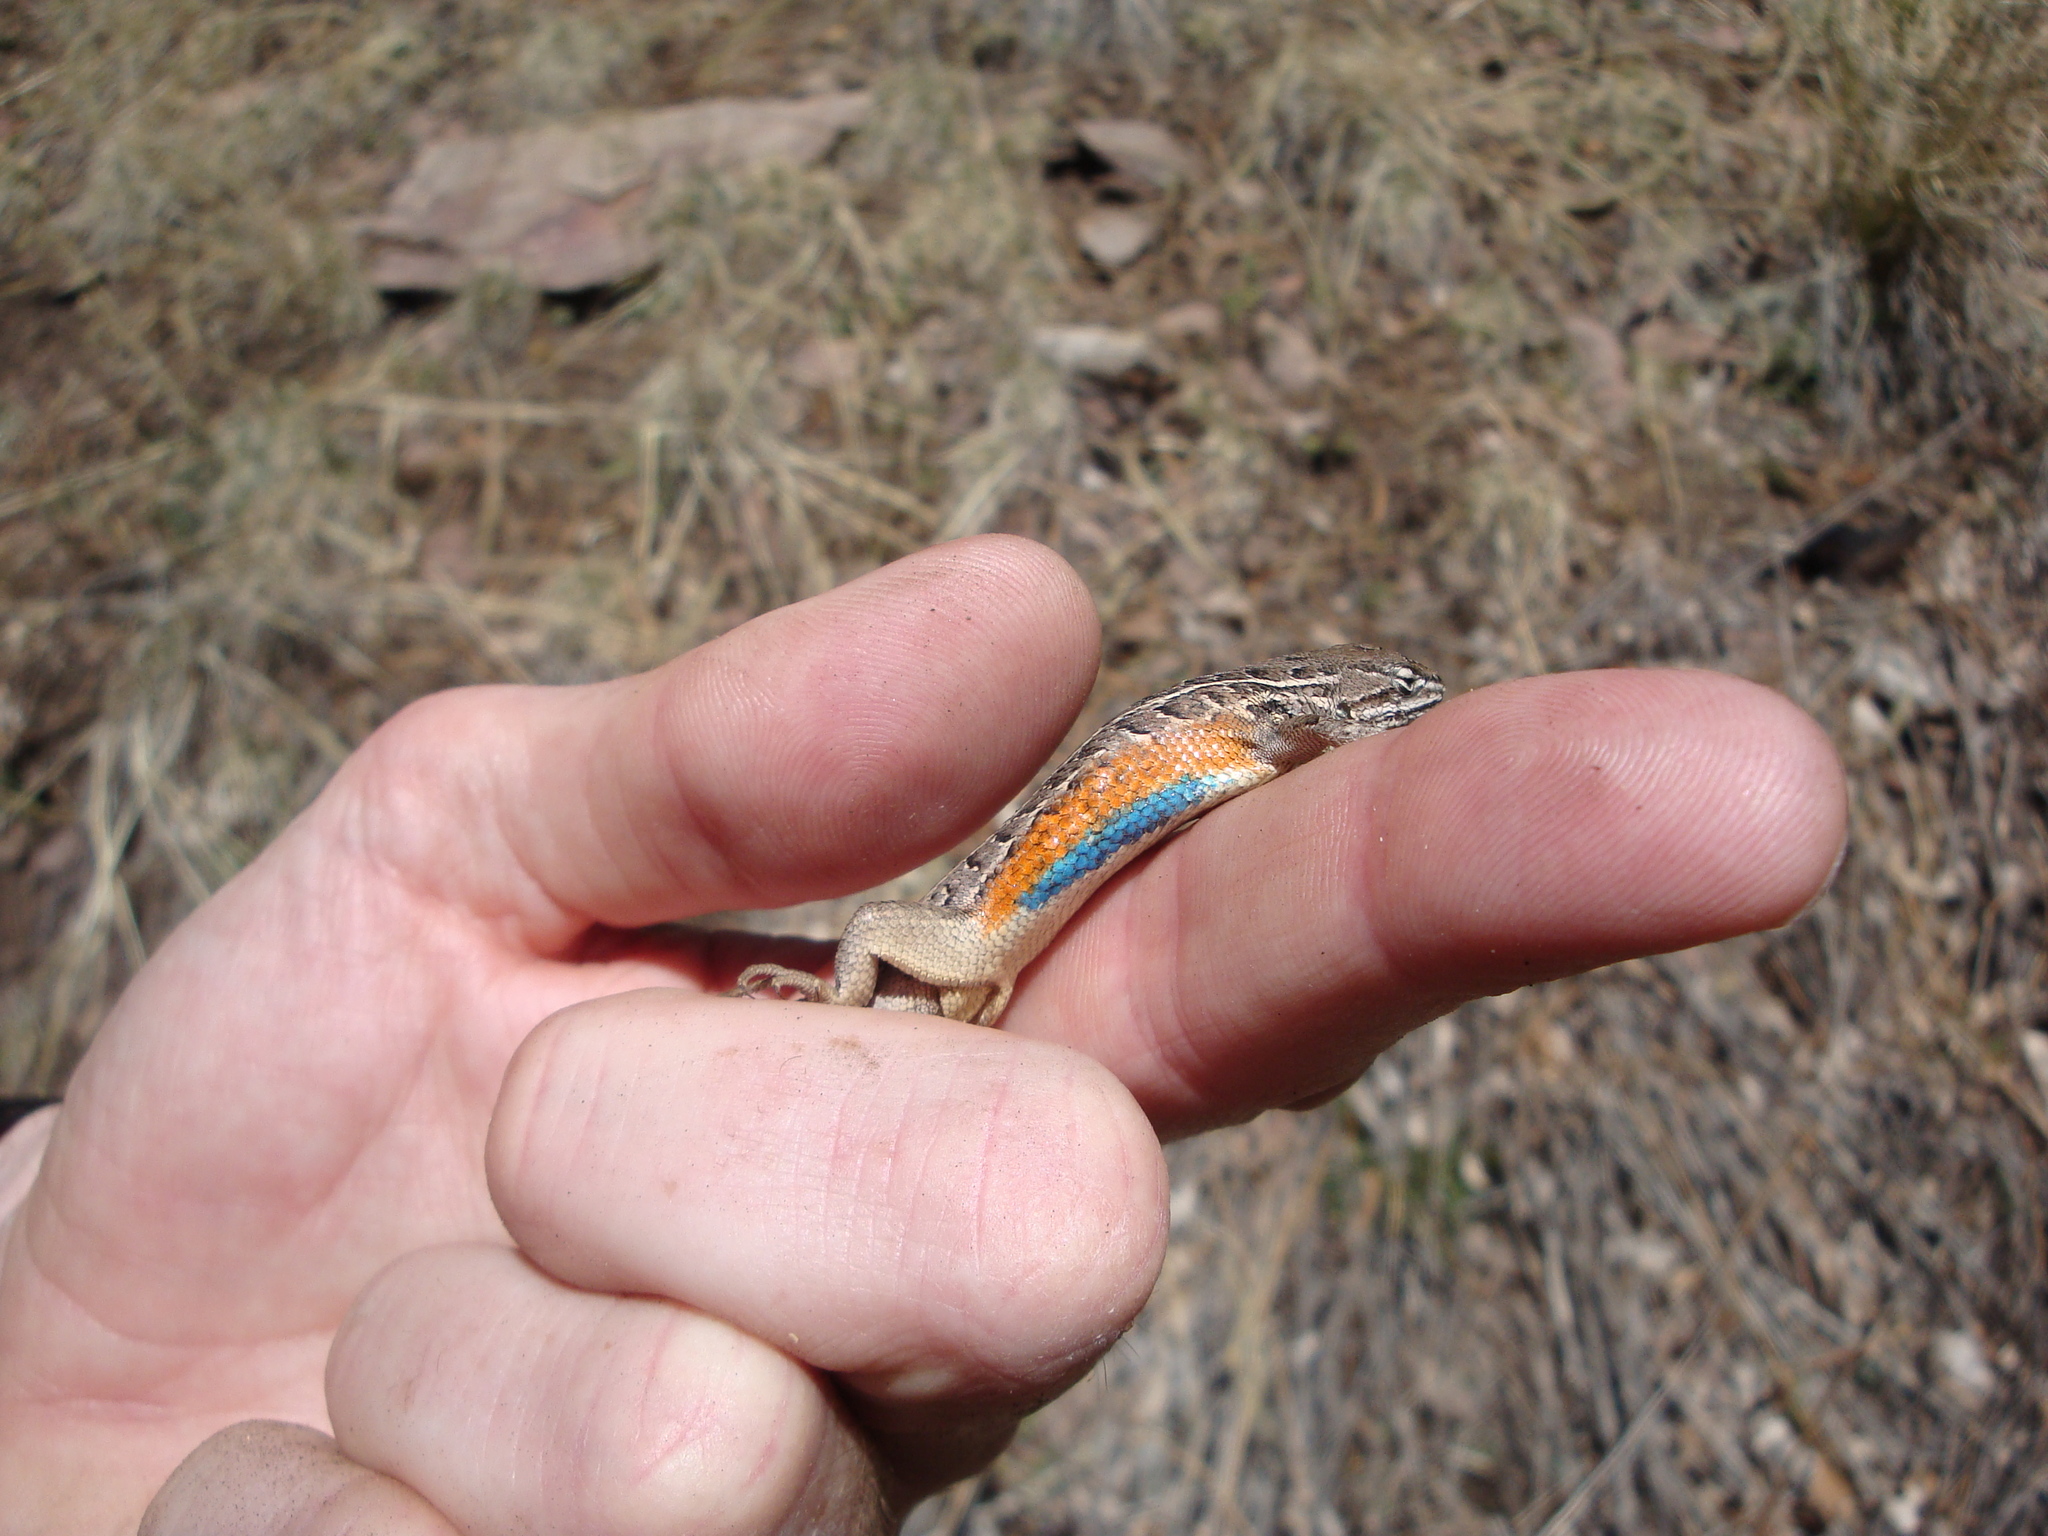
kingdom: Animalia
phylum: Chordata
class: Squamata
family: Phrynosomatidae
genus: Sceloporus
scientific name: Sceloporus slevini
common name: Slevins’s bunch grass lizard
